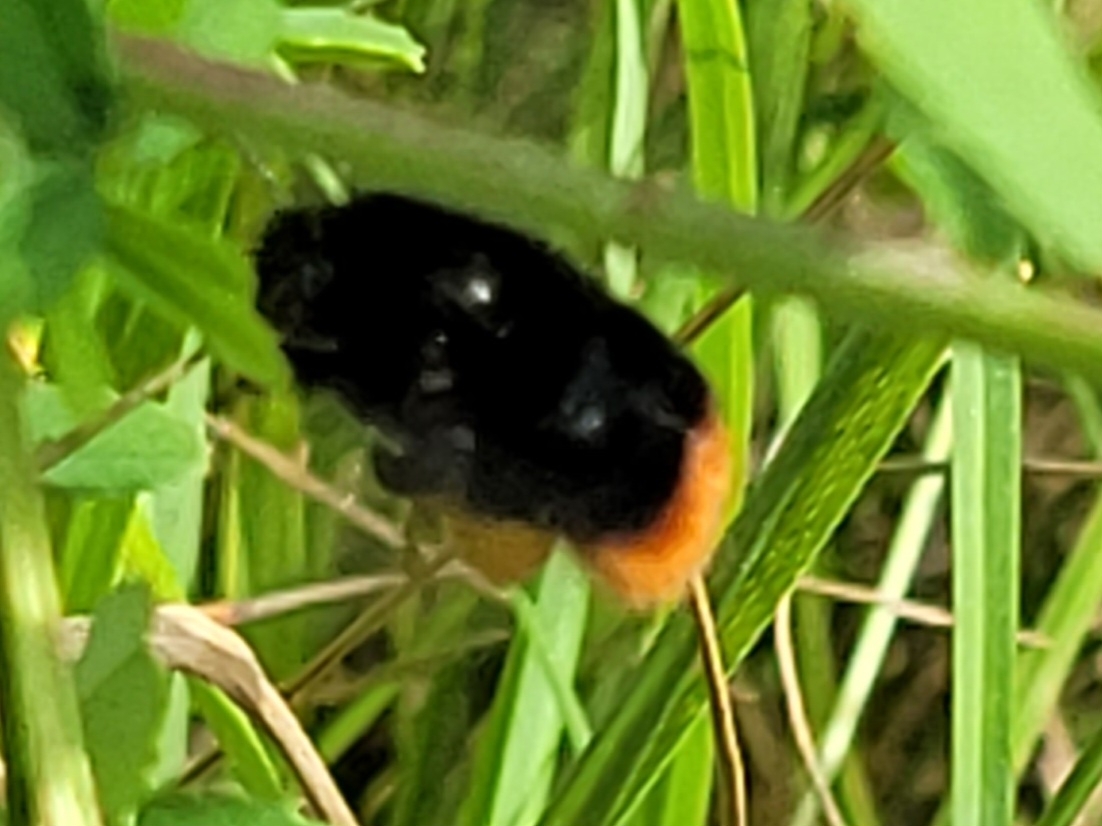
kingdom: Animalia
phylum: Arthropoda
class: Insecta
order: Hymenoptera
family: Apidae
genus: Bombus
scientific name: Bombus lapidarius
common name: Large red-tailed humble-bee
